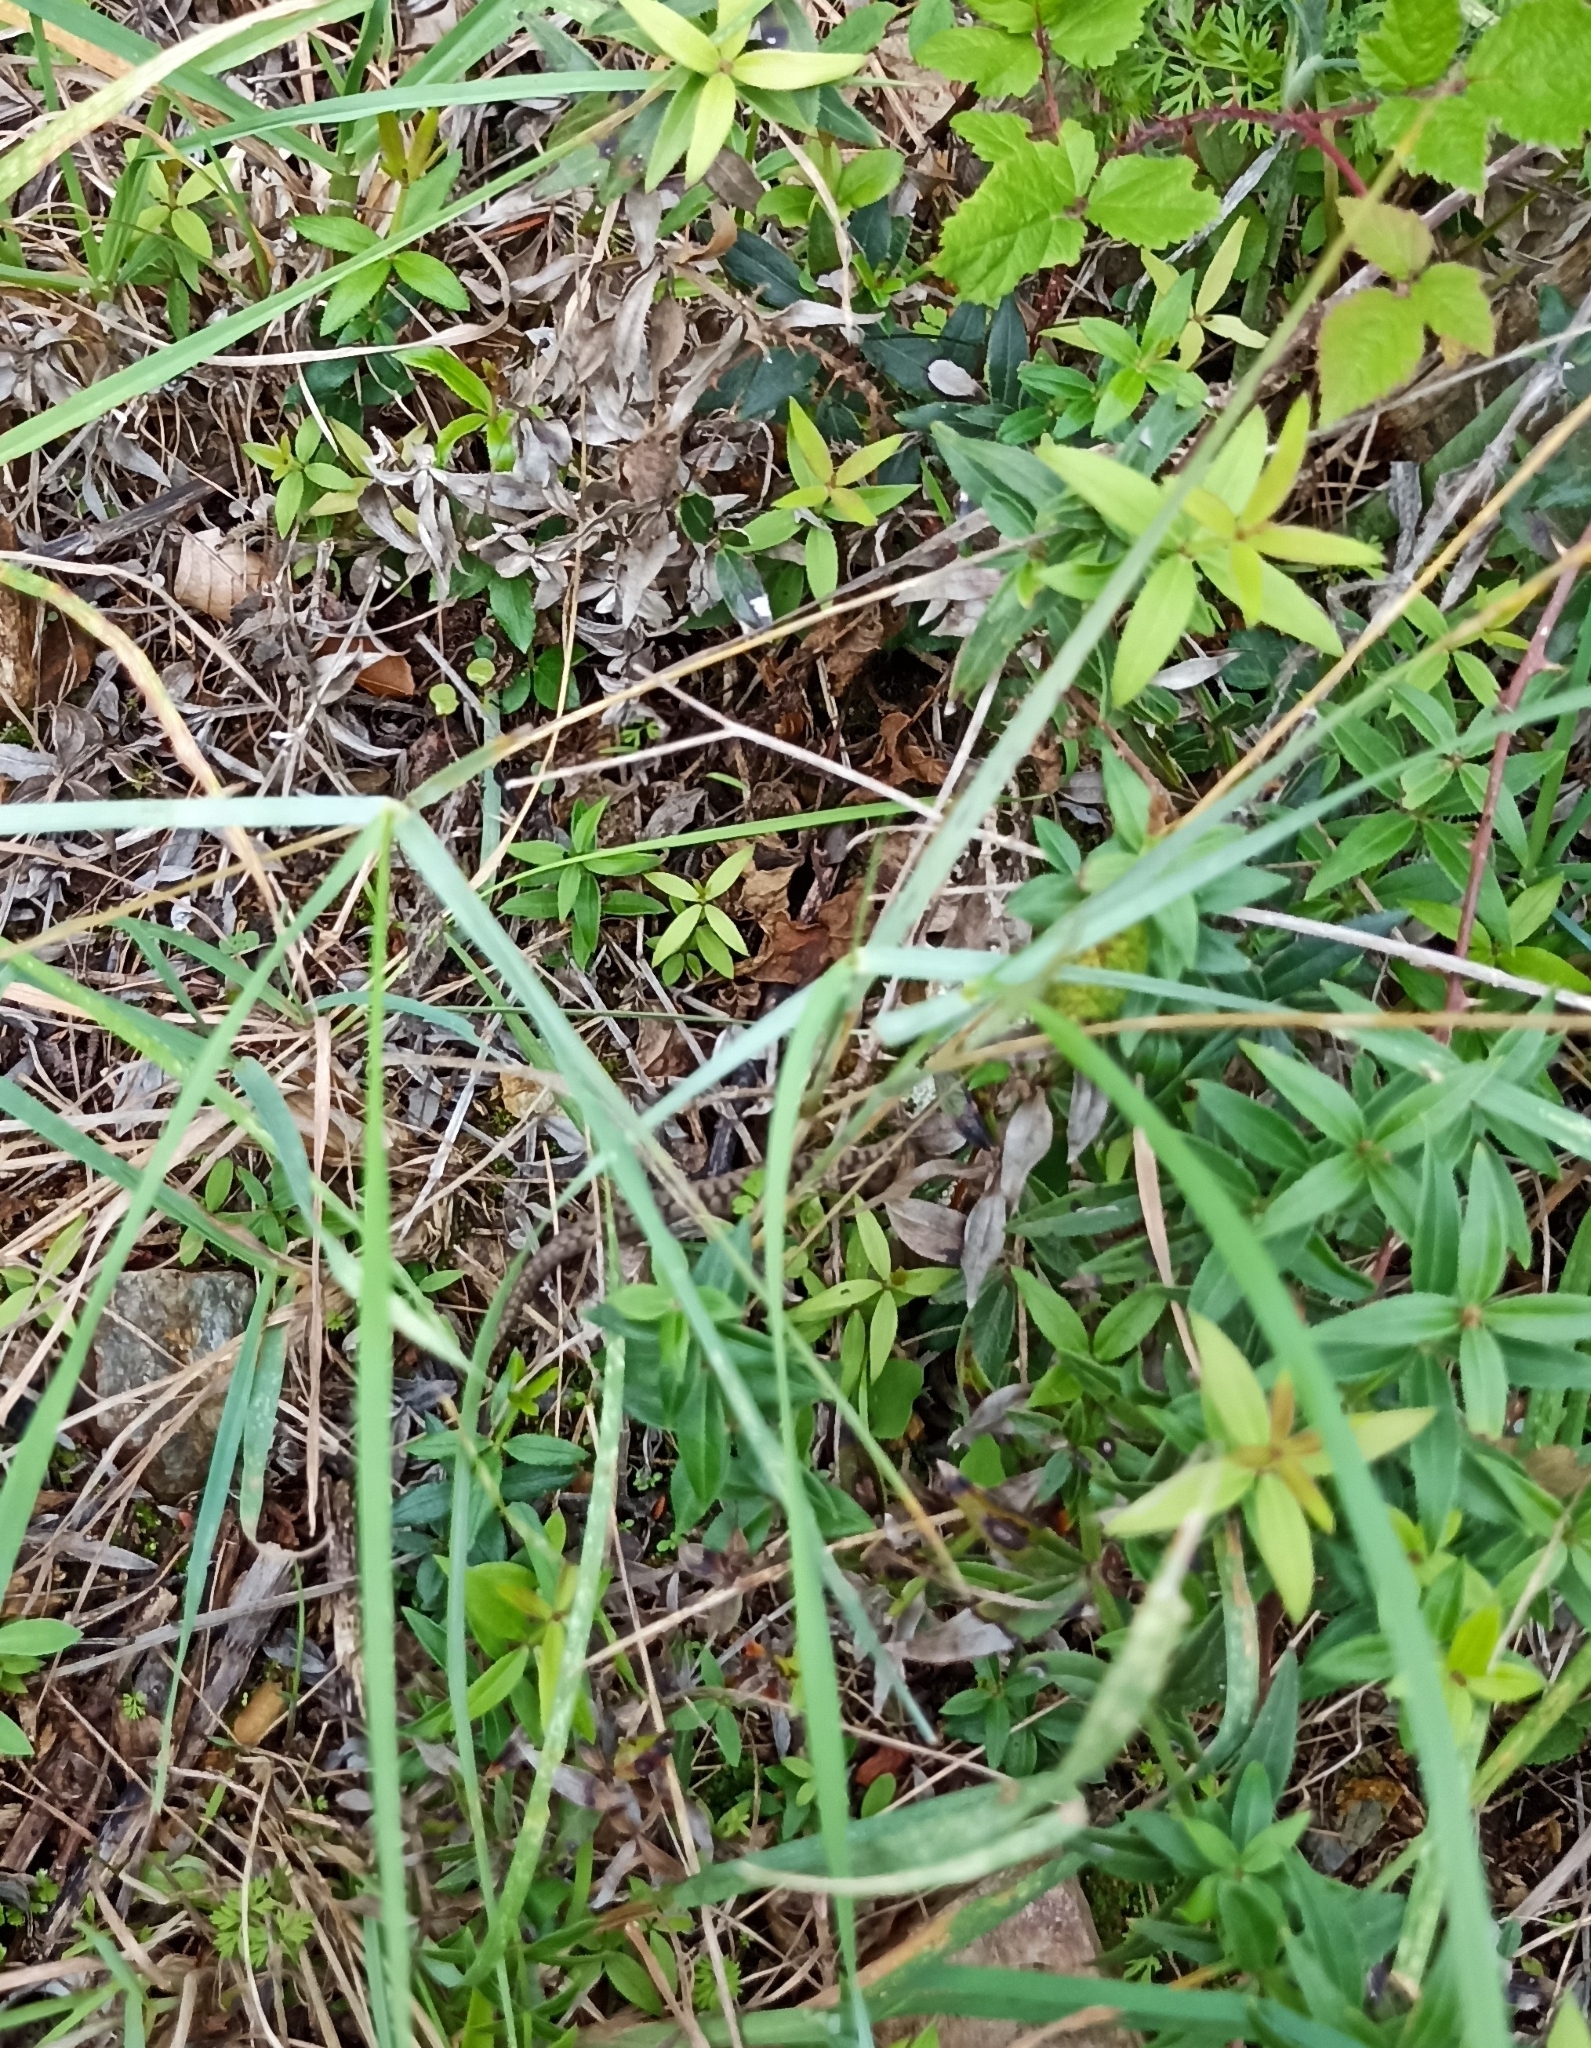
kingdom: Animalia
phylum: Chordata
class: Squamata
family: Viperidae
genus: Vipera
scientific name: Vipera aspis
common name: Asp viper
